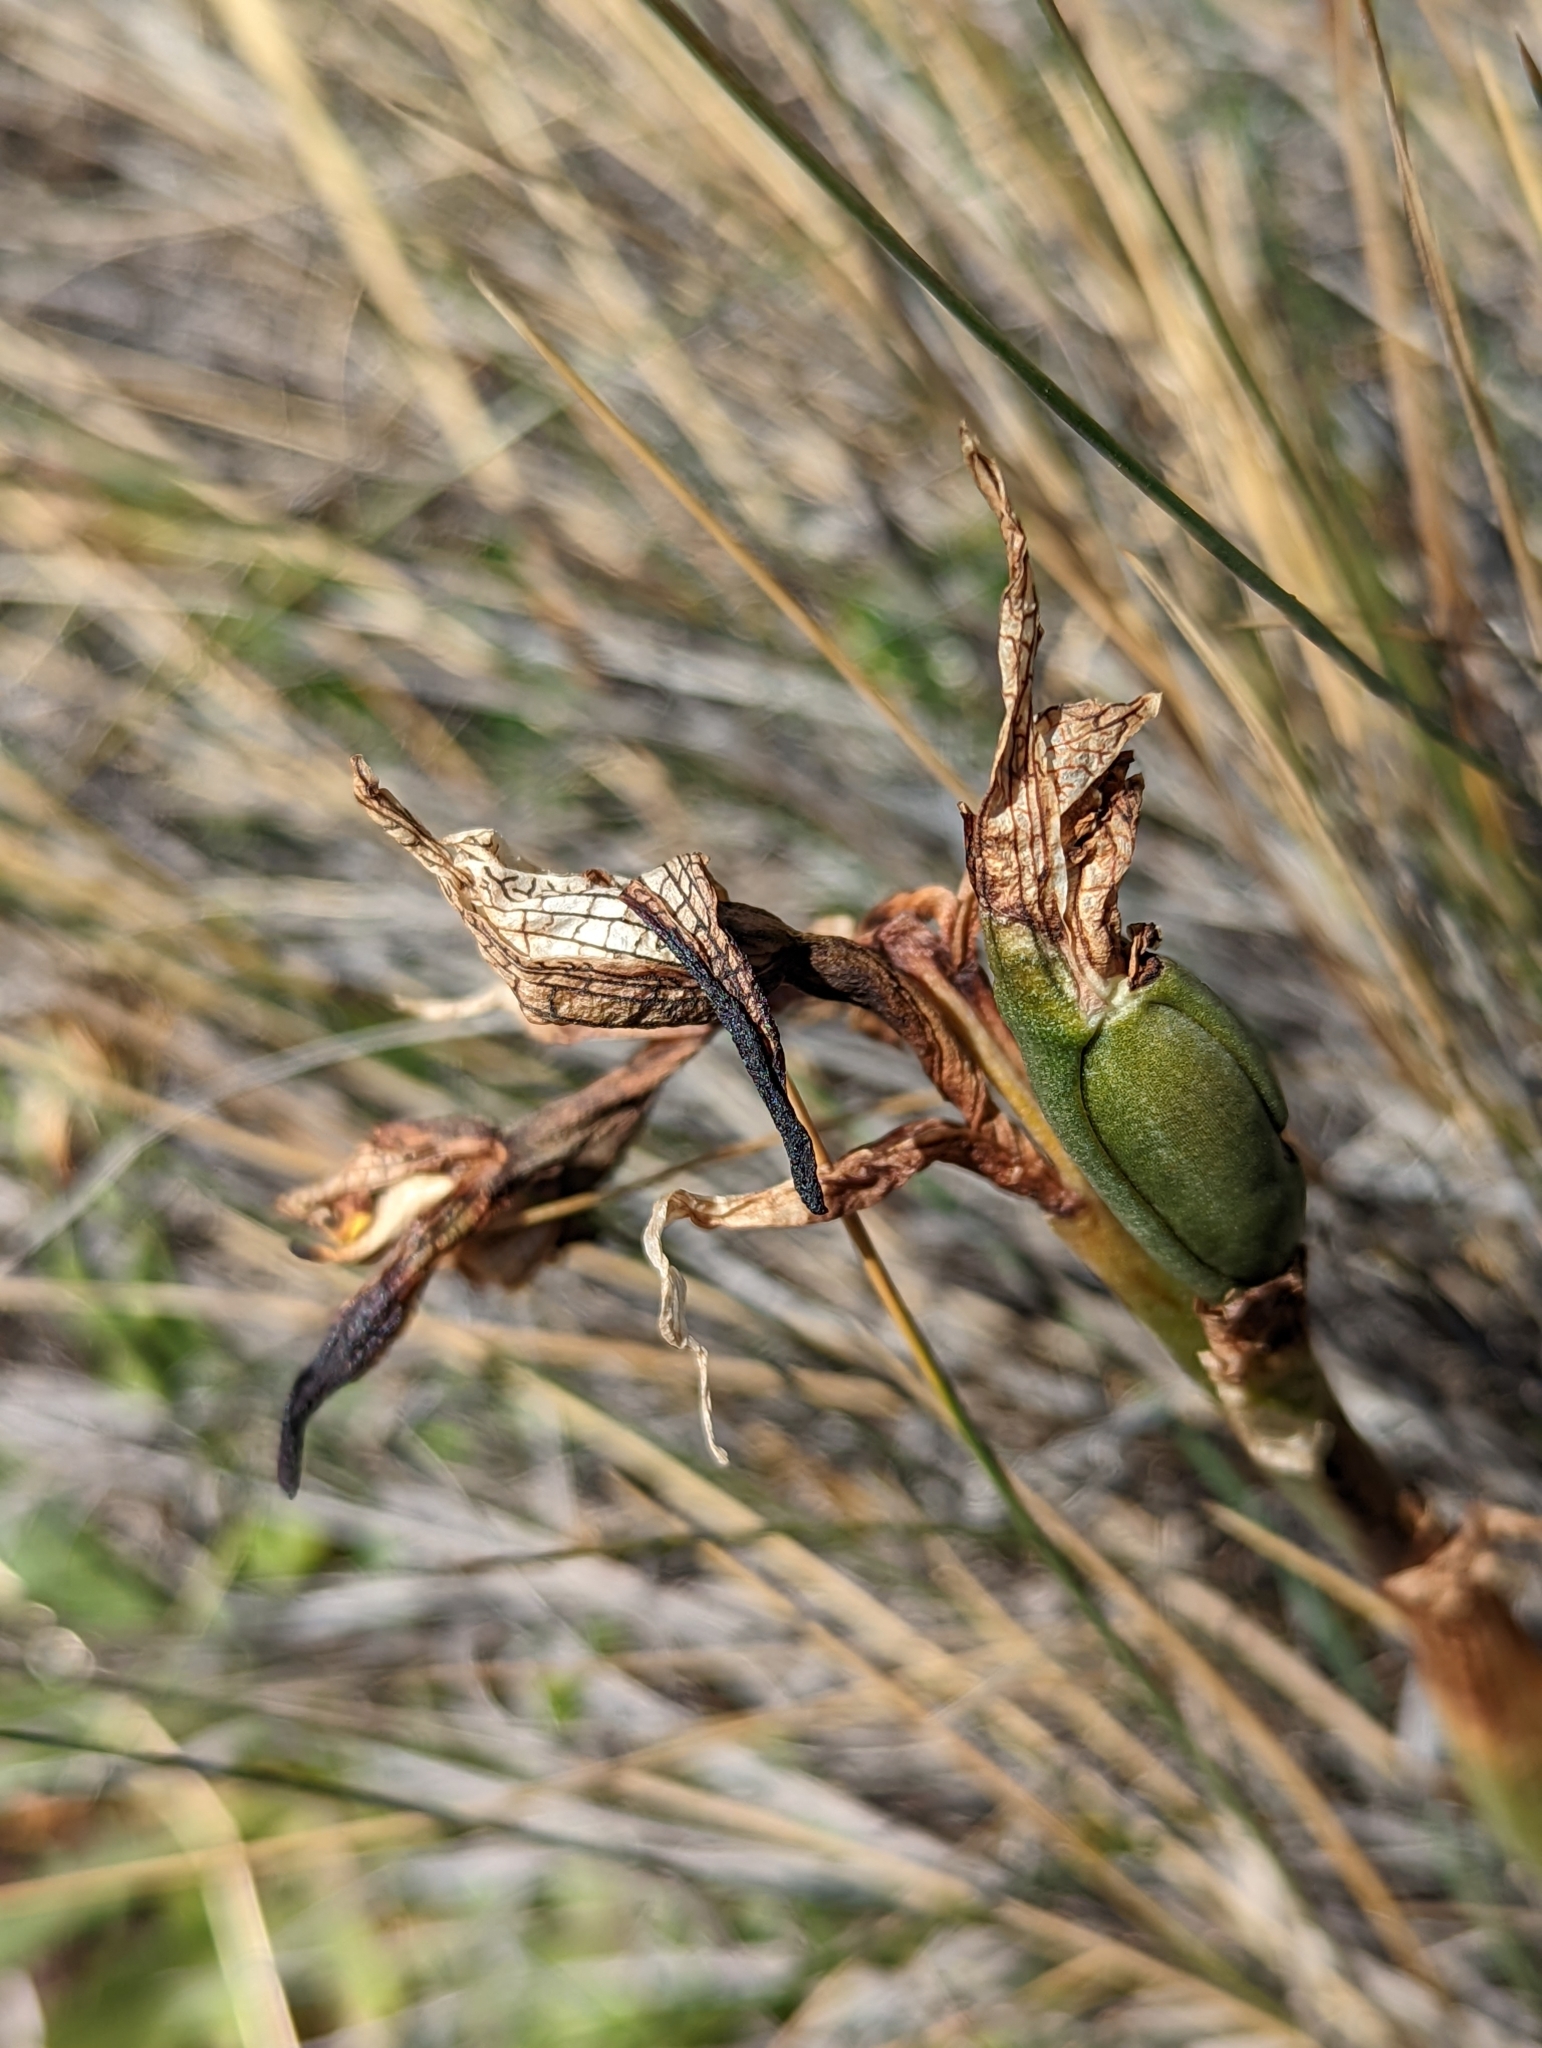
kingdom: Plantae
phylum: Tracheophyta
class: Liliopsida
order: Asparagales
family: Orchidaceae
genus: Chloraea
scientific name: Chloraea magellanica
